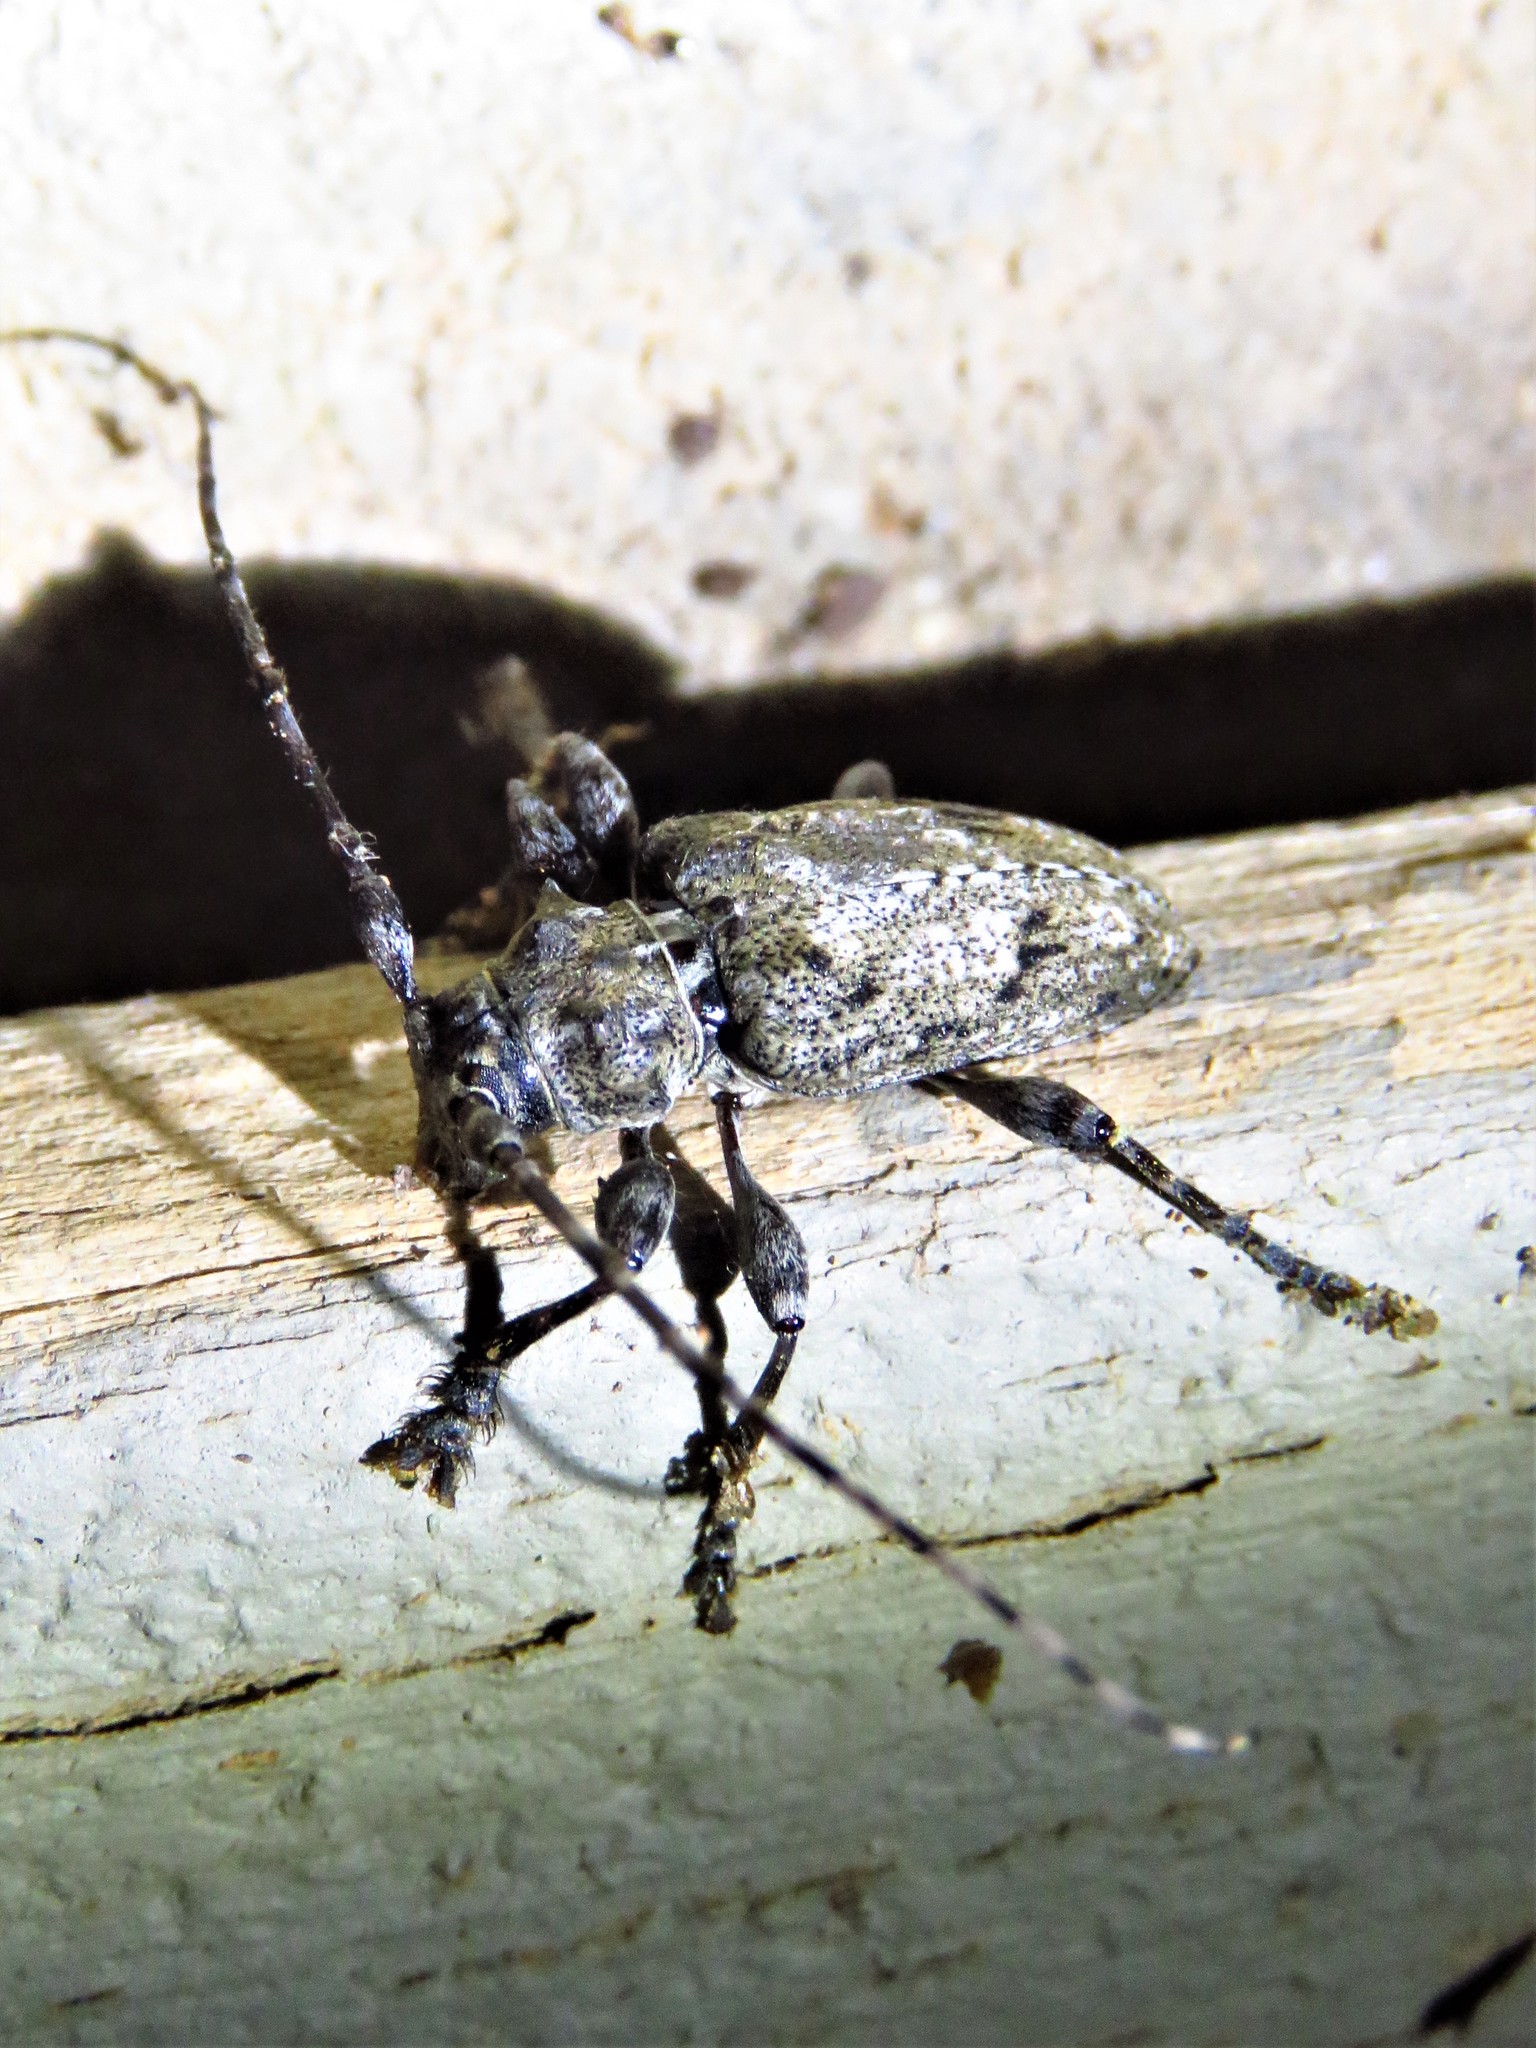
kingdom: Animalia
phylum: Arthropoda
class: Insecta
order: Coleoptera
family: Cerambycidae
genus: Aegomorphus
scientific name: Aegomorphus modestus
